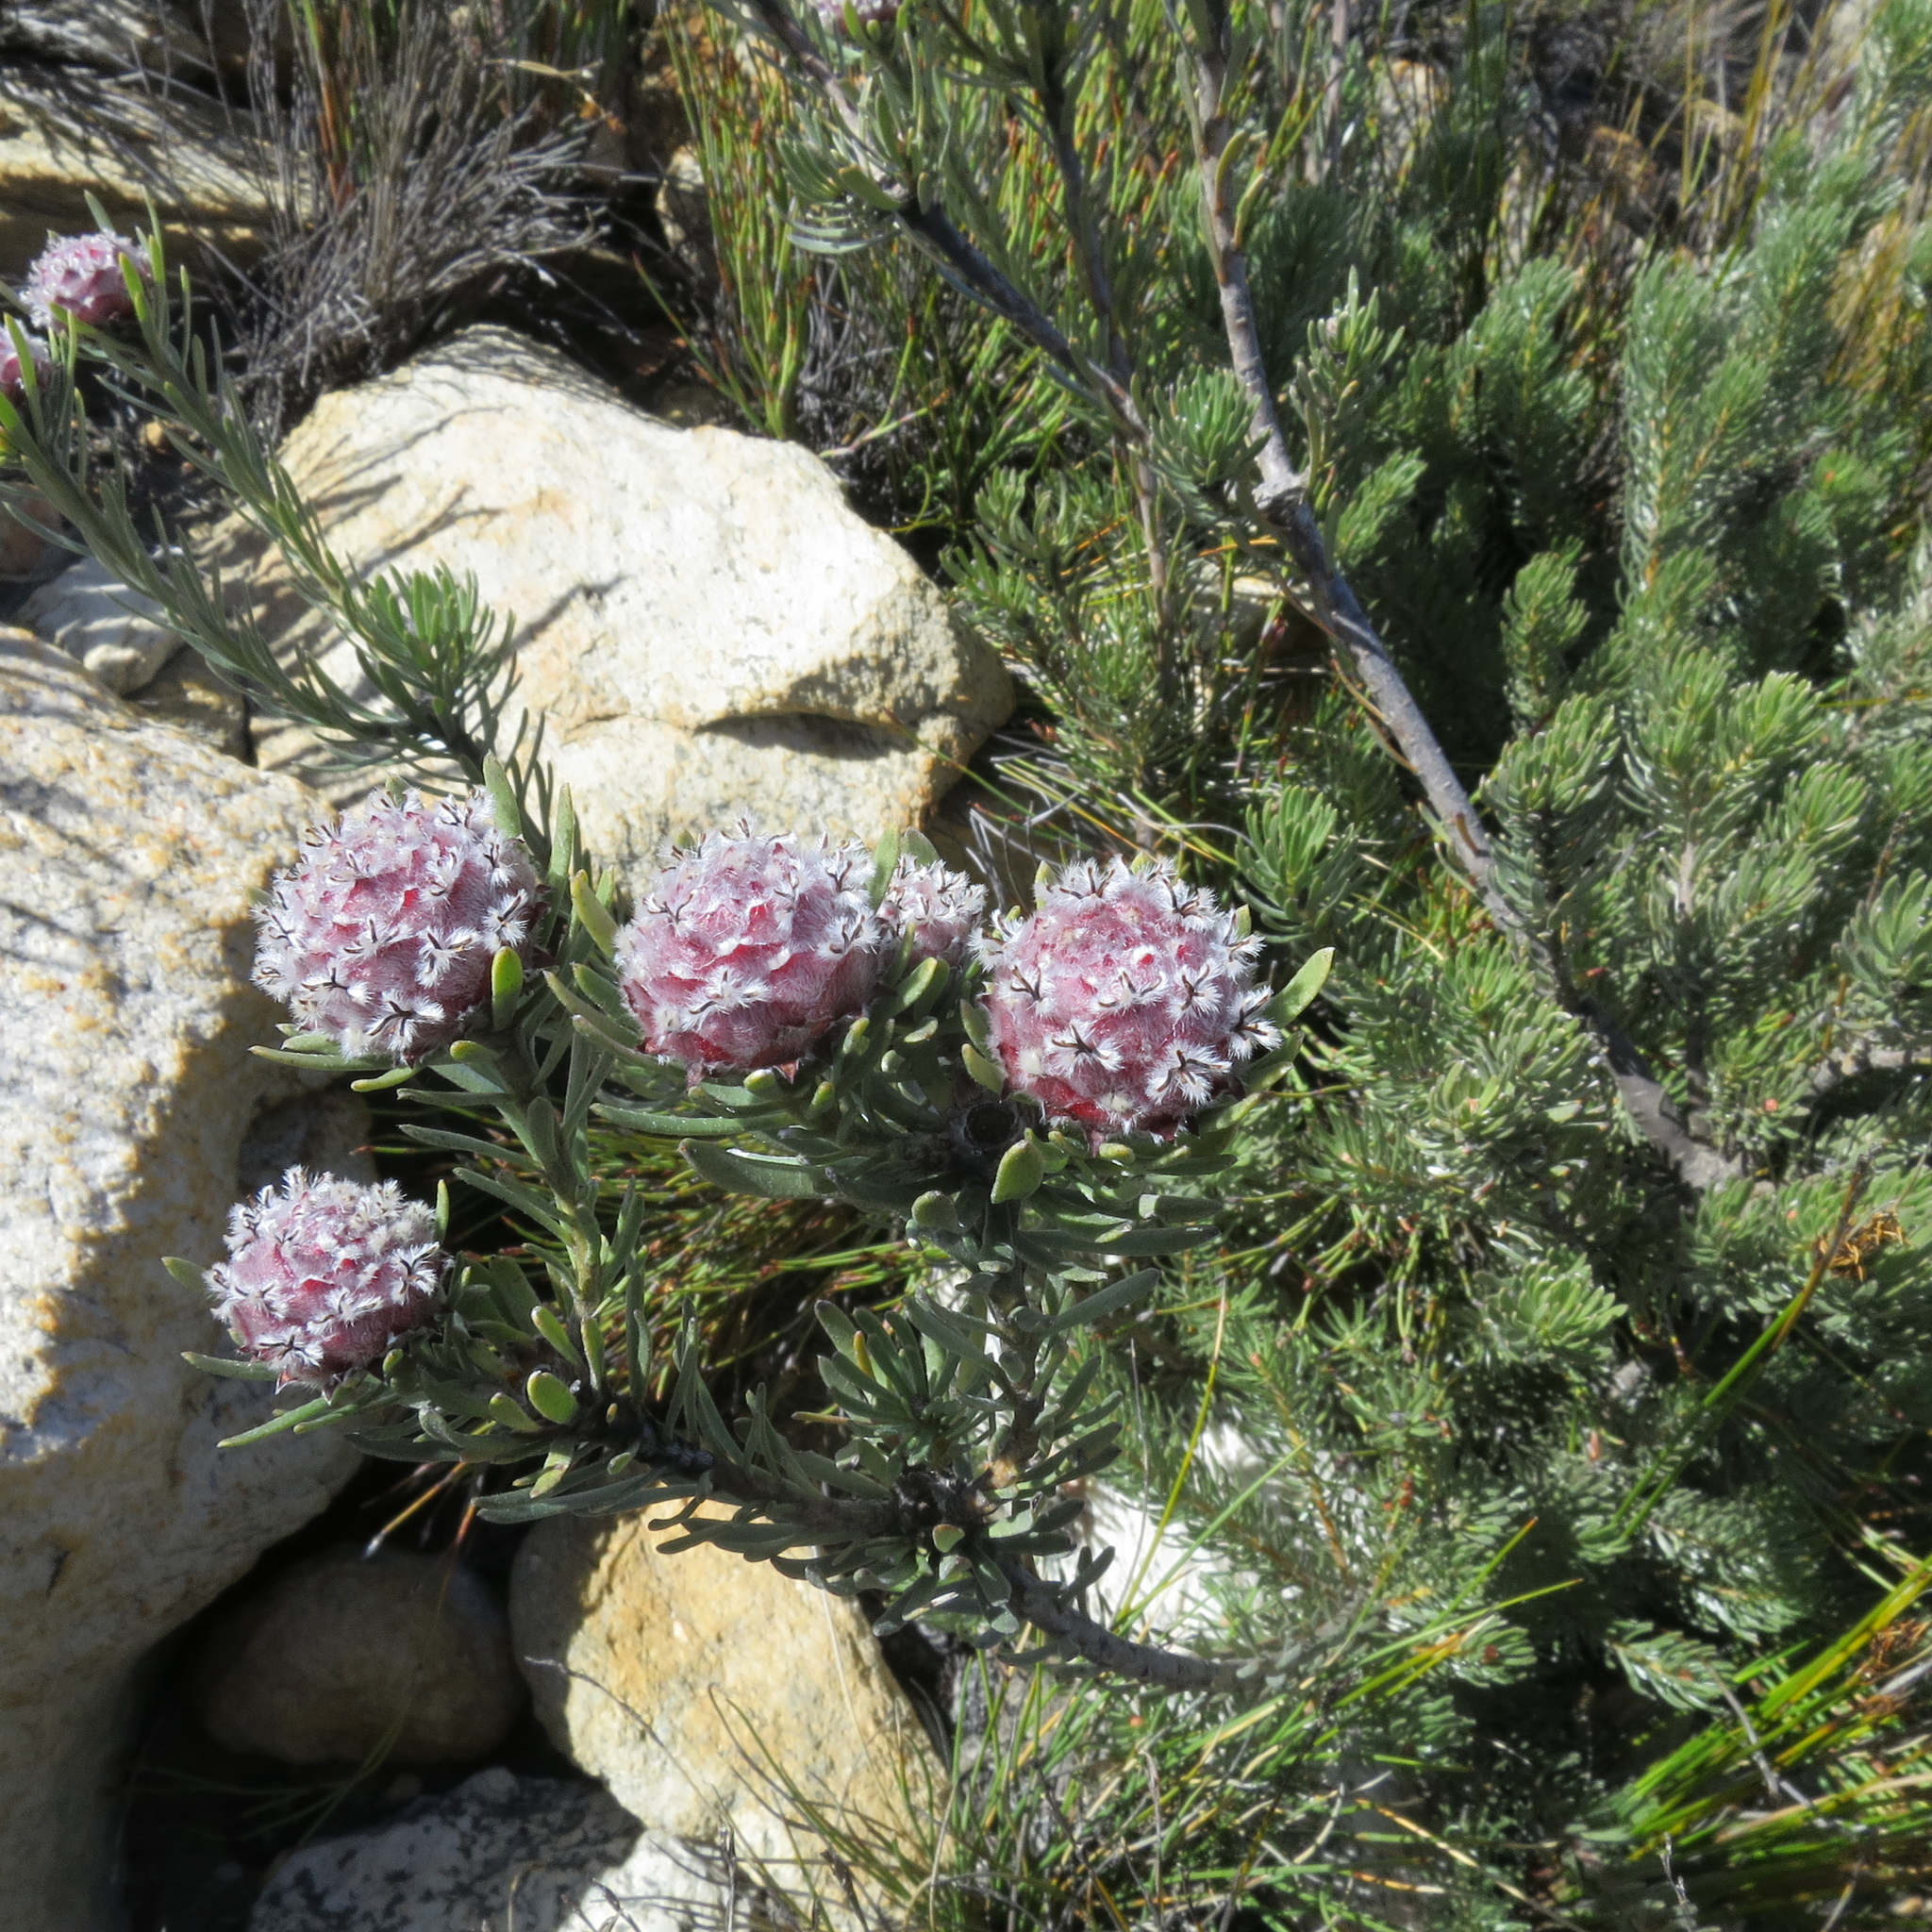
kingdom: Plantae
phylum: Tracheophyta
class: Magnoliopsida
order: Proteales
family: Proteaceae
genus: Leucadendron
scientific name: Leucadendron singulare
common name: Kammanassie conebush
